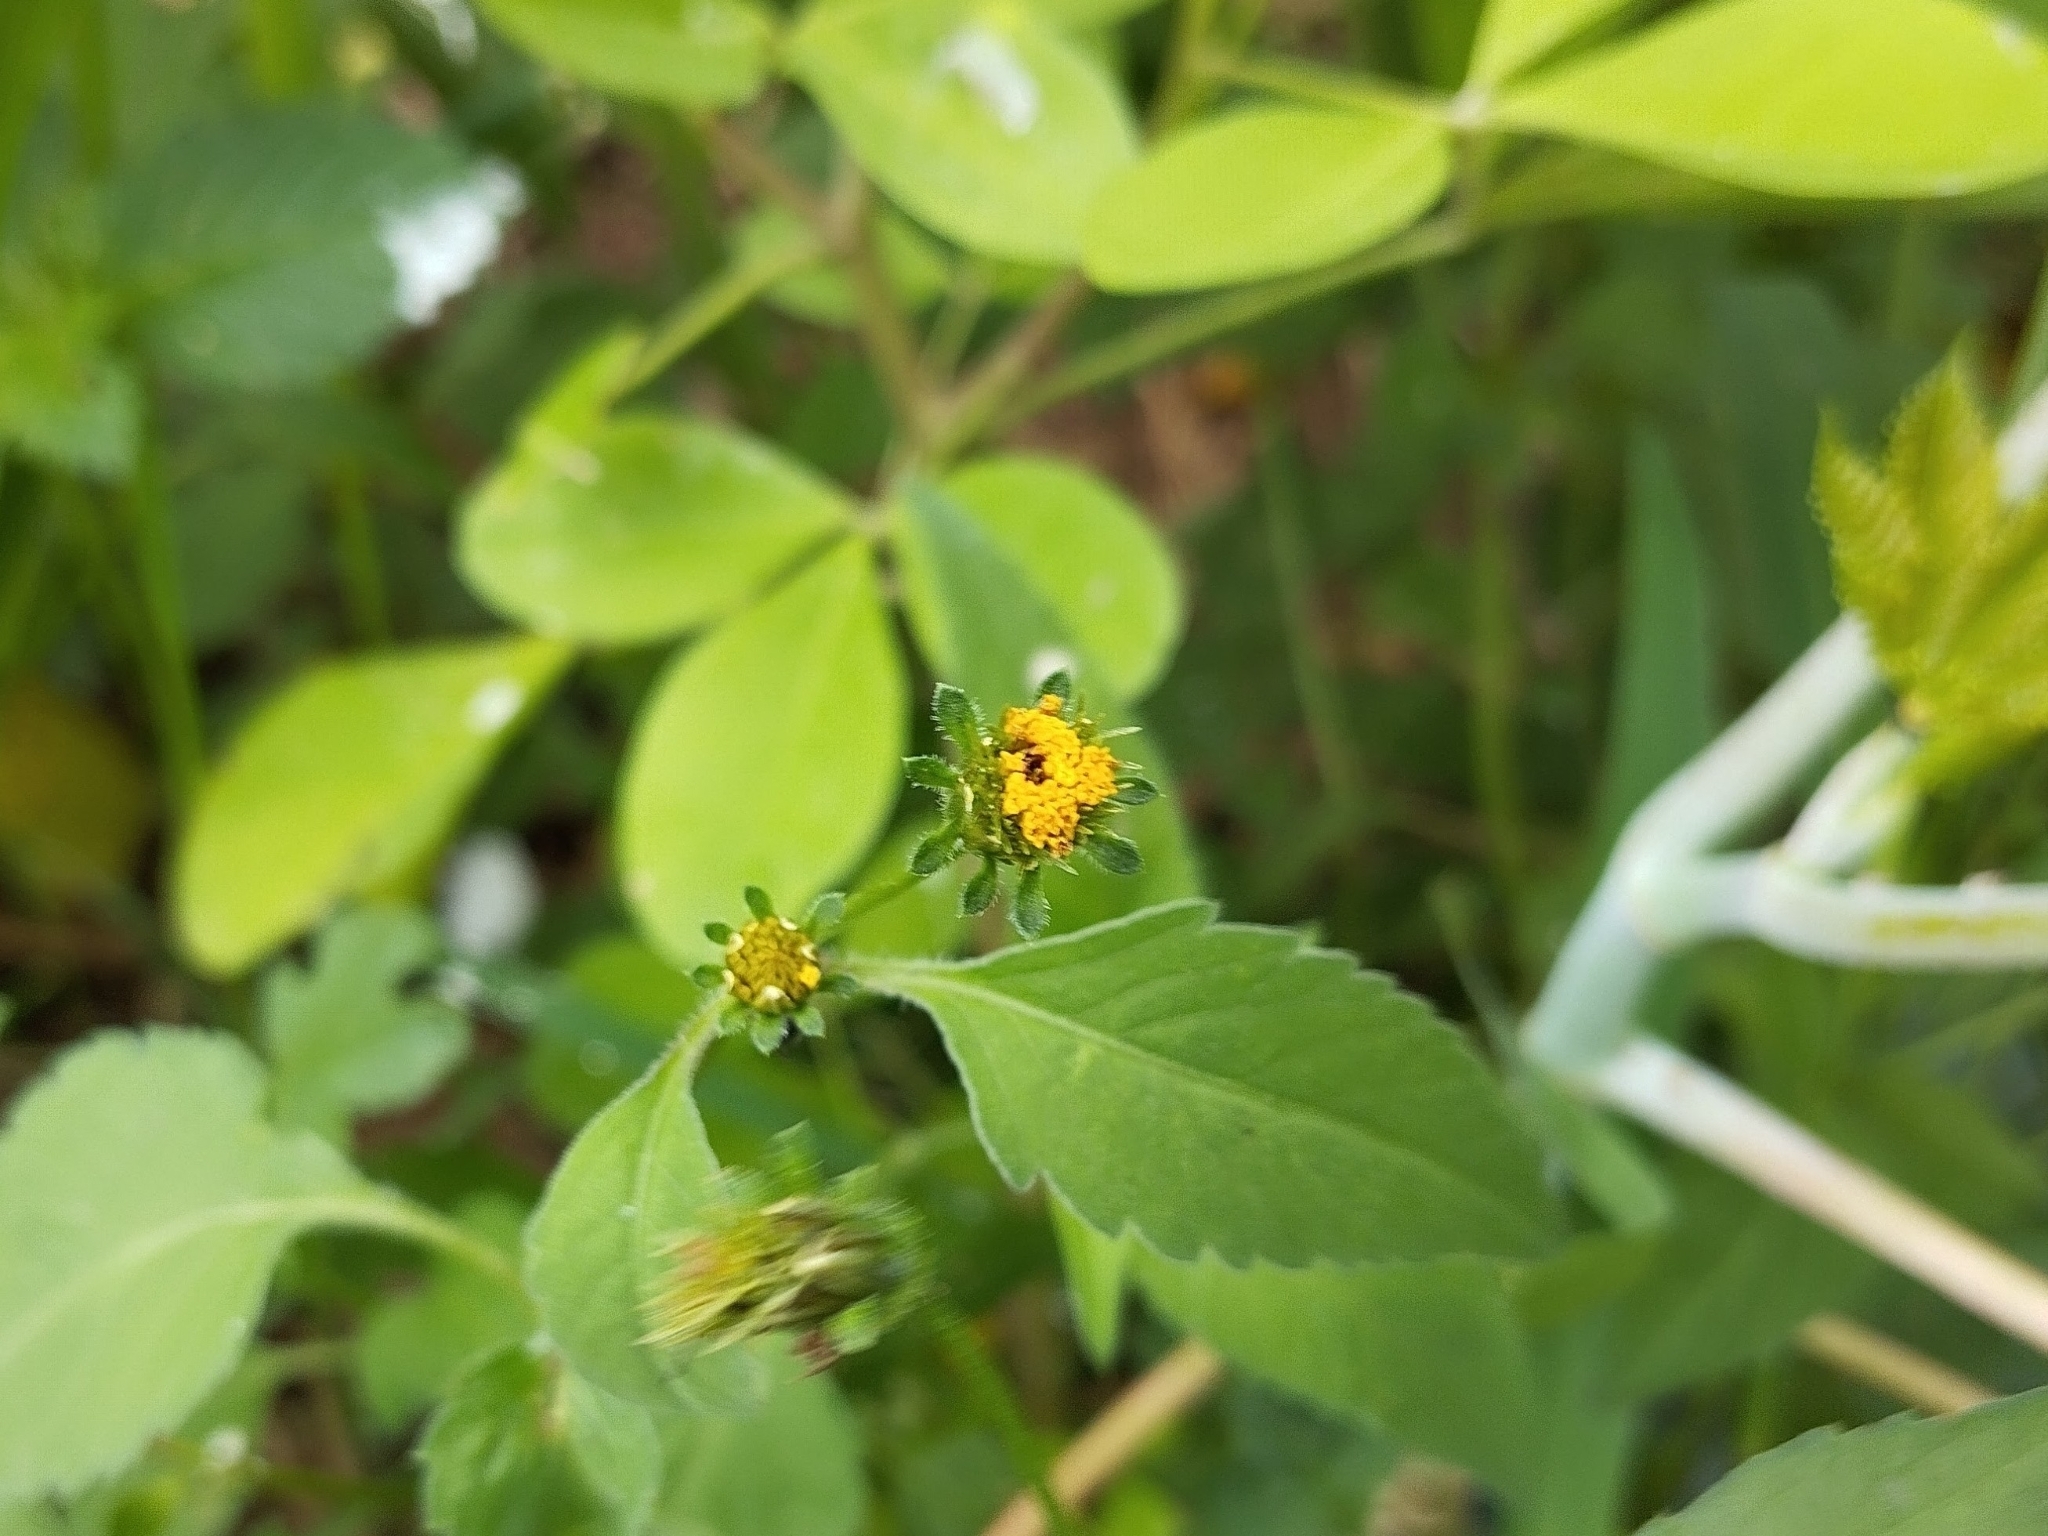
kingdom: Plantae
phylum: Tracheophyta
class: Magnoliopsida
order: Asterales
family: Asteraceae
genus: Bidens
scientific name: Bidens pilosa
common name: Black-jack
